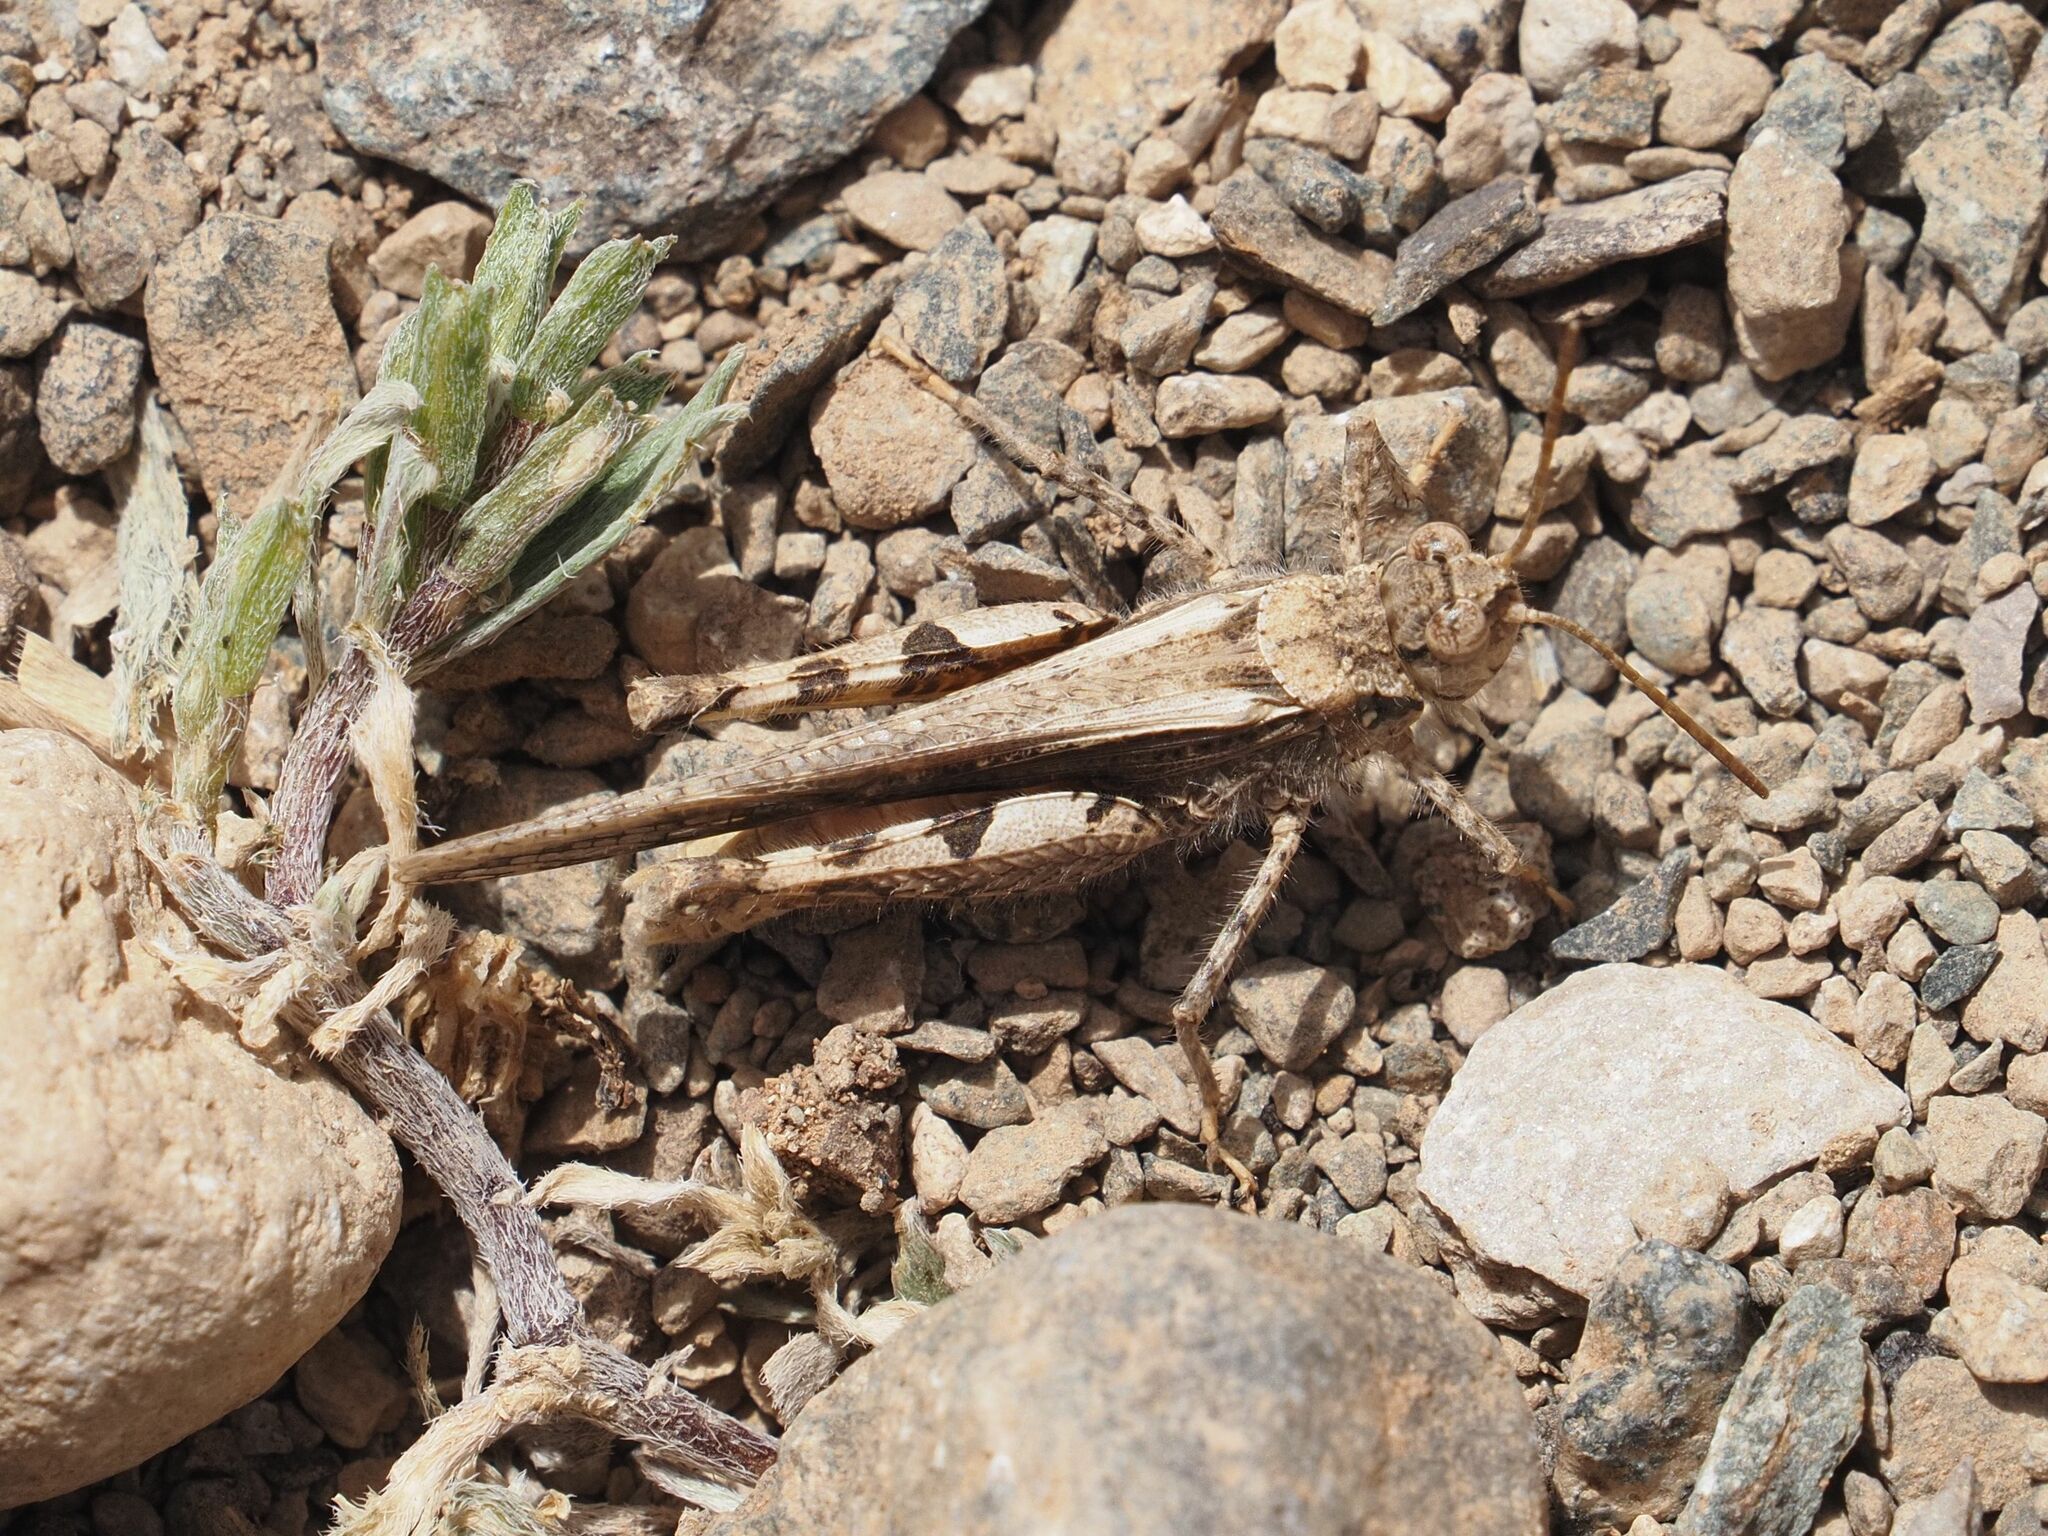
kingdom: Animalia
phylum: Arthropoda
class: Insecta
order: Orthoptera
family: Acrididae
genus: Acrotylus
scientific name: Acrotylus insubricus
